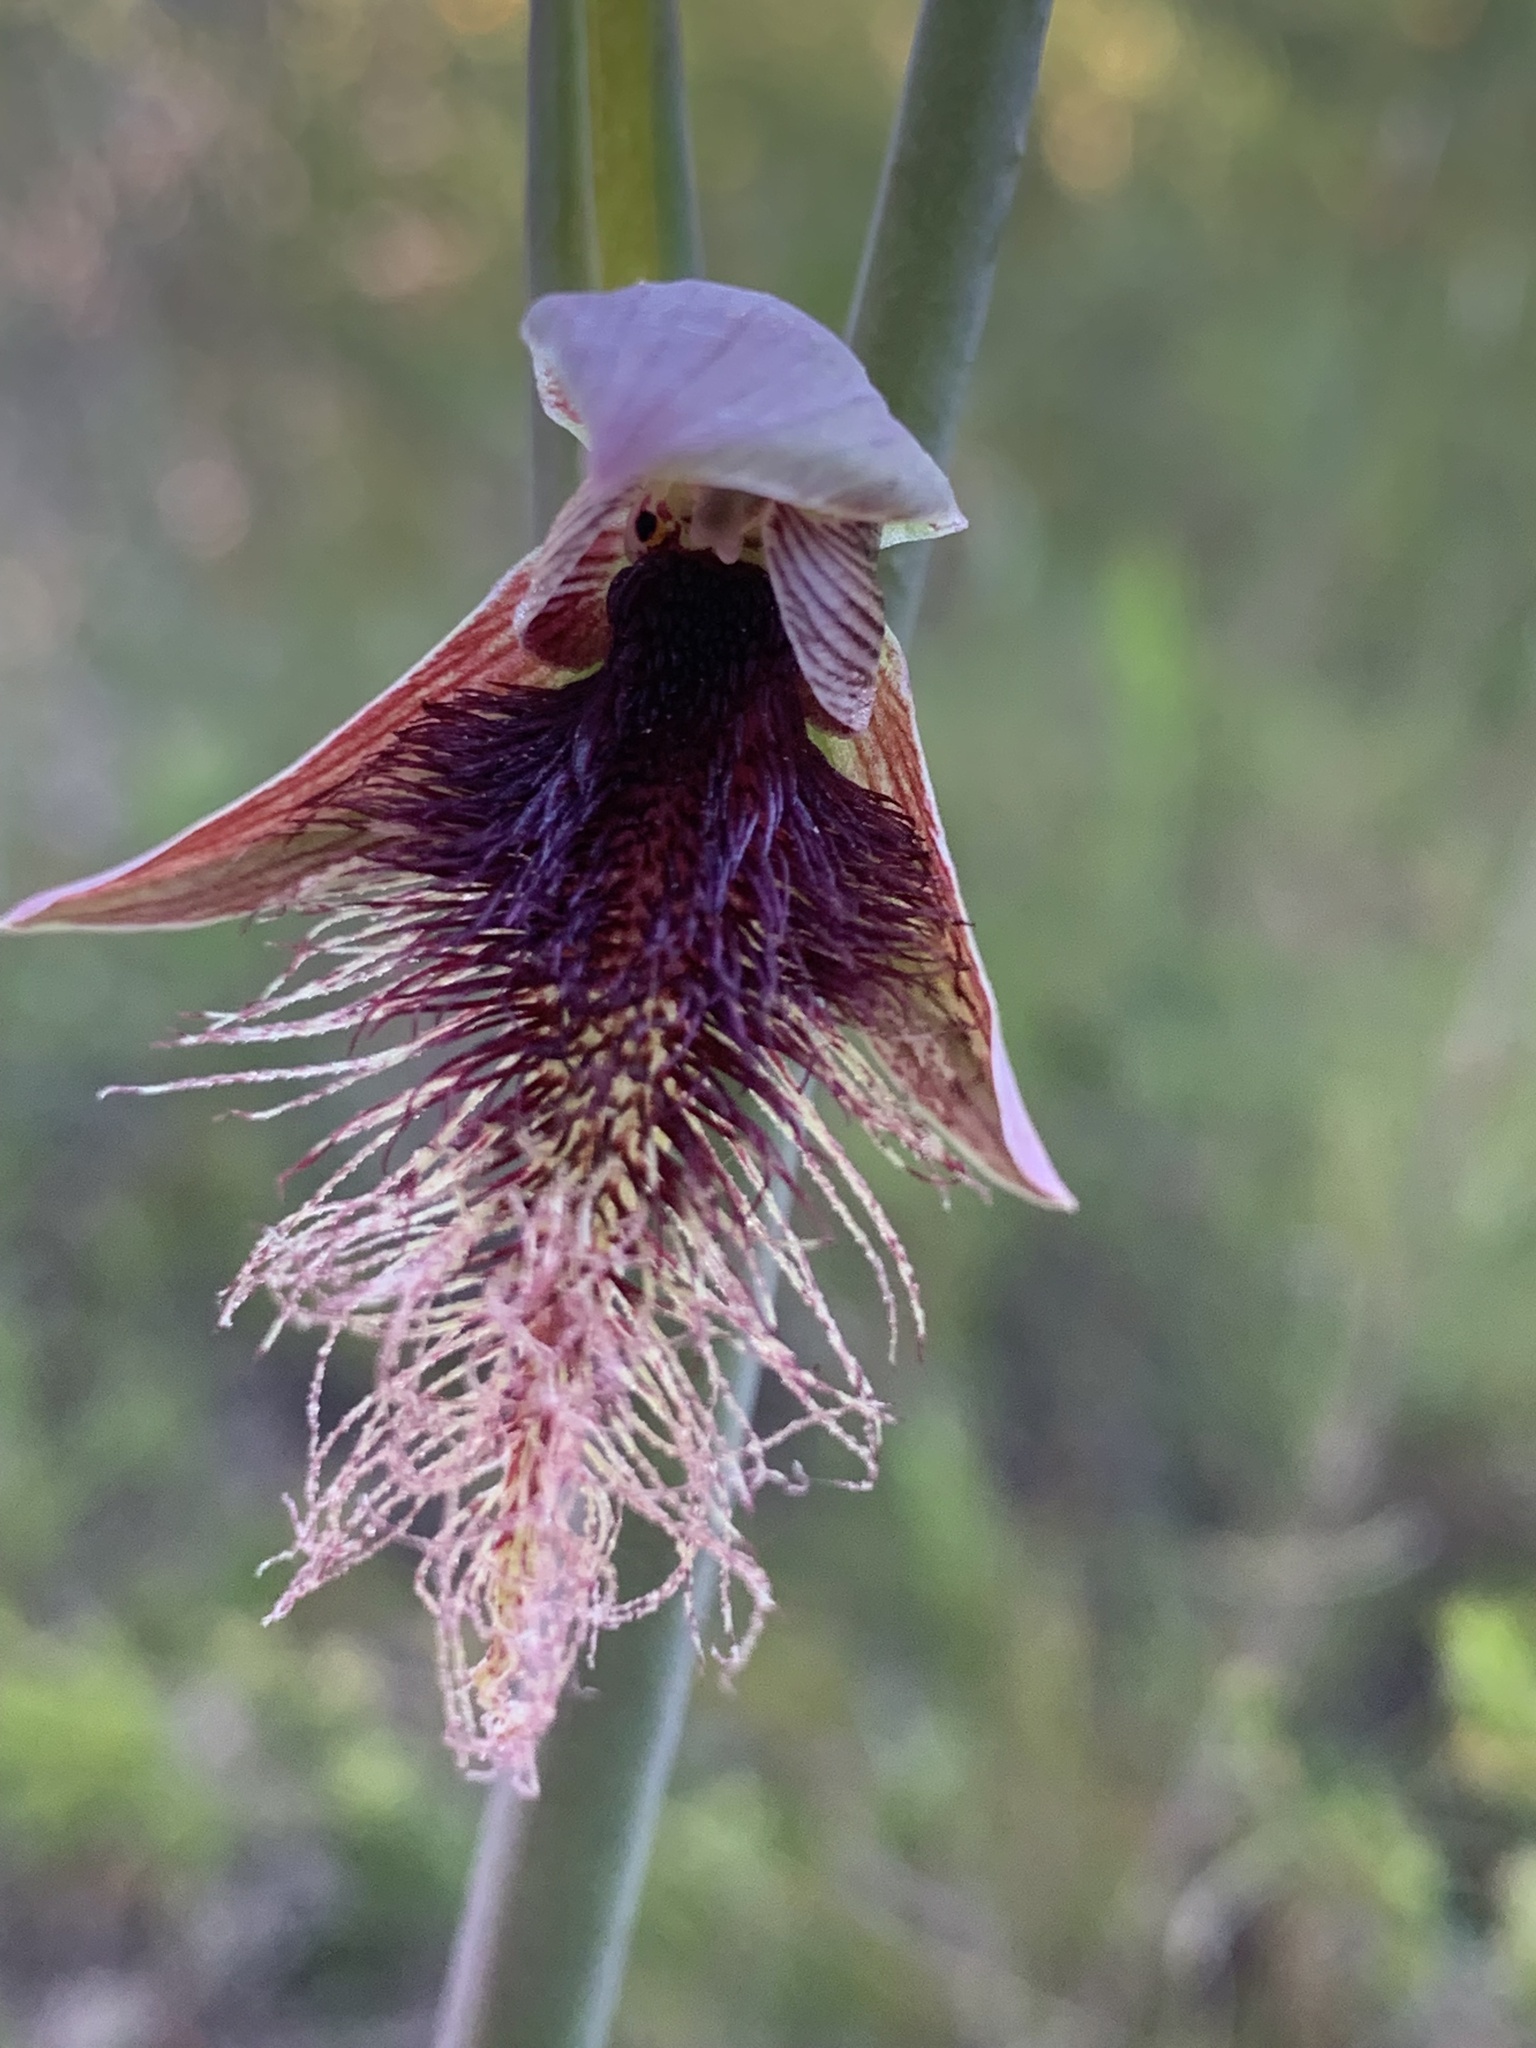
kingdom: Plantae
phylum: Tracheophyta
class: Liliopsida
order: Asparagales
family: Orchidaceae
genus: Calochilus
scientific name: Calochilus robertsonii
